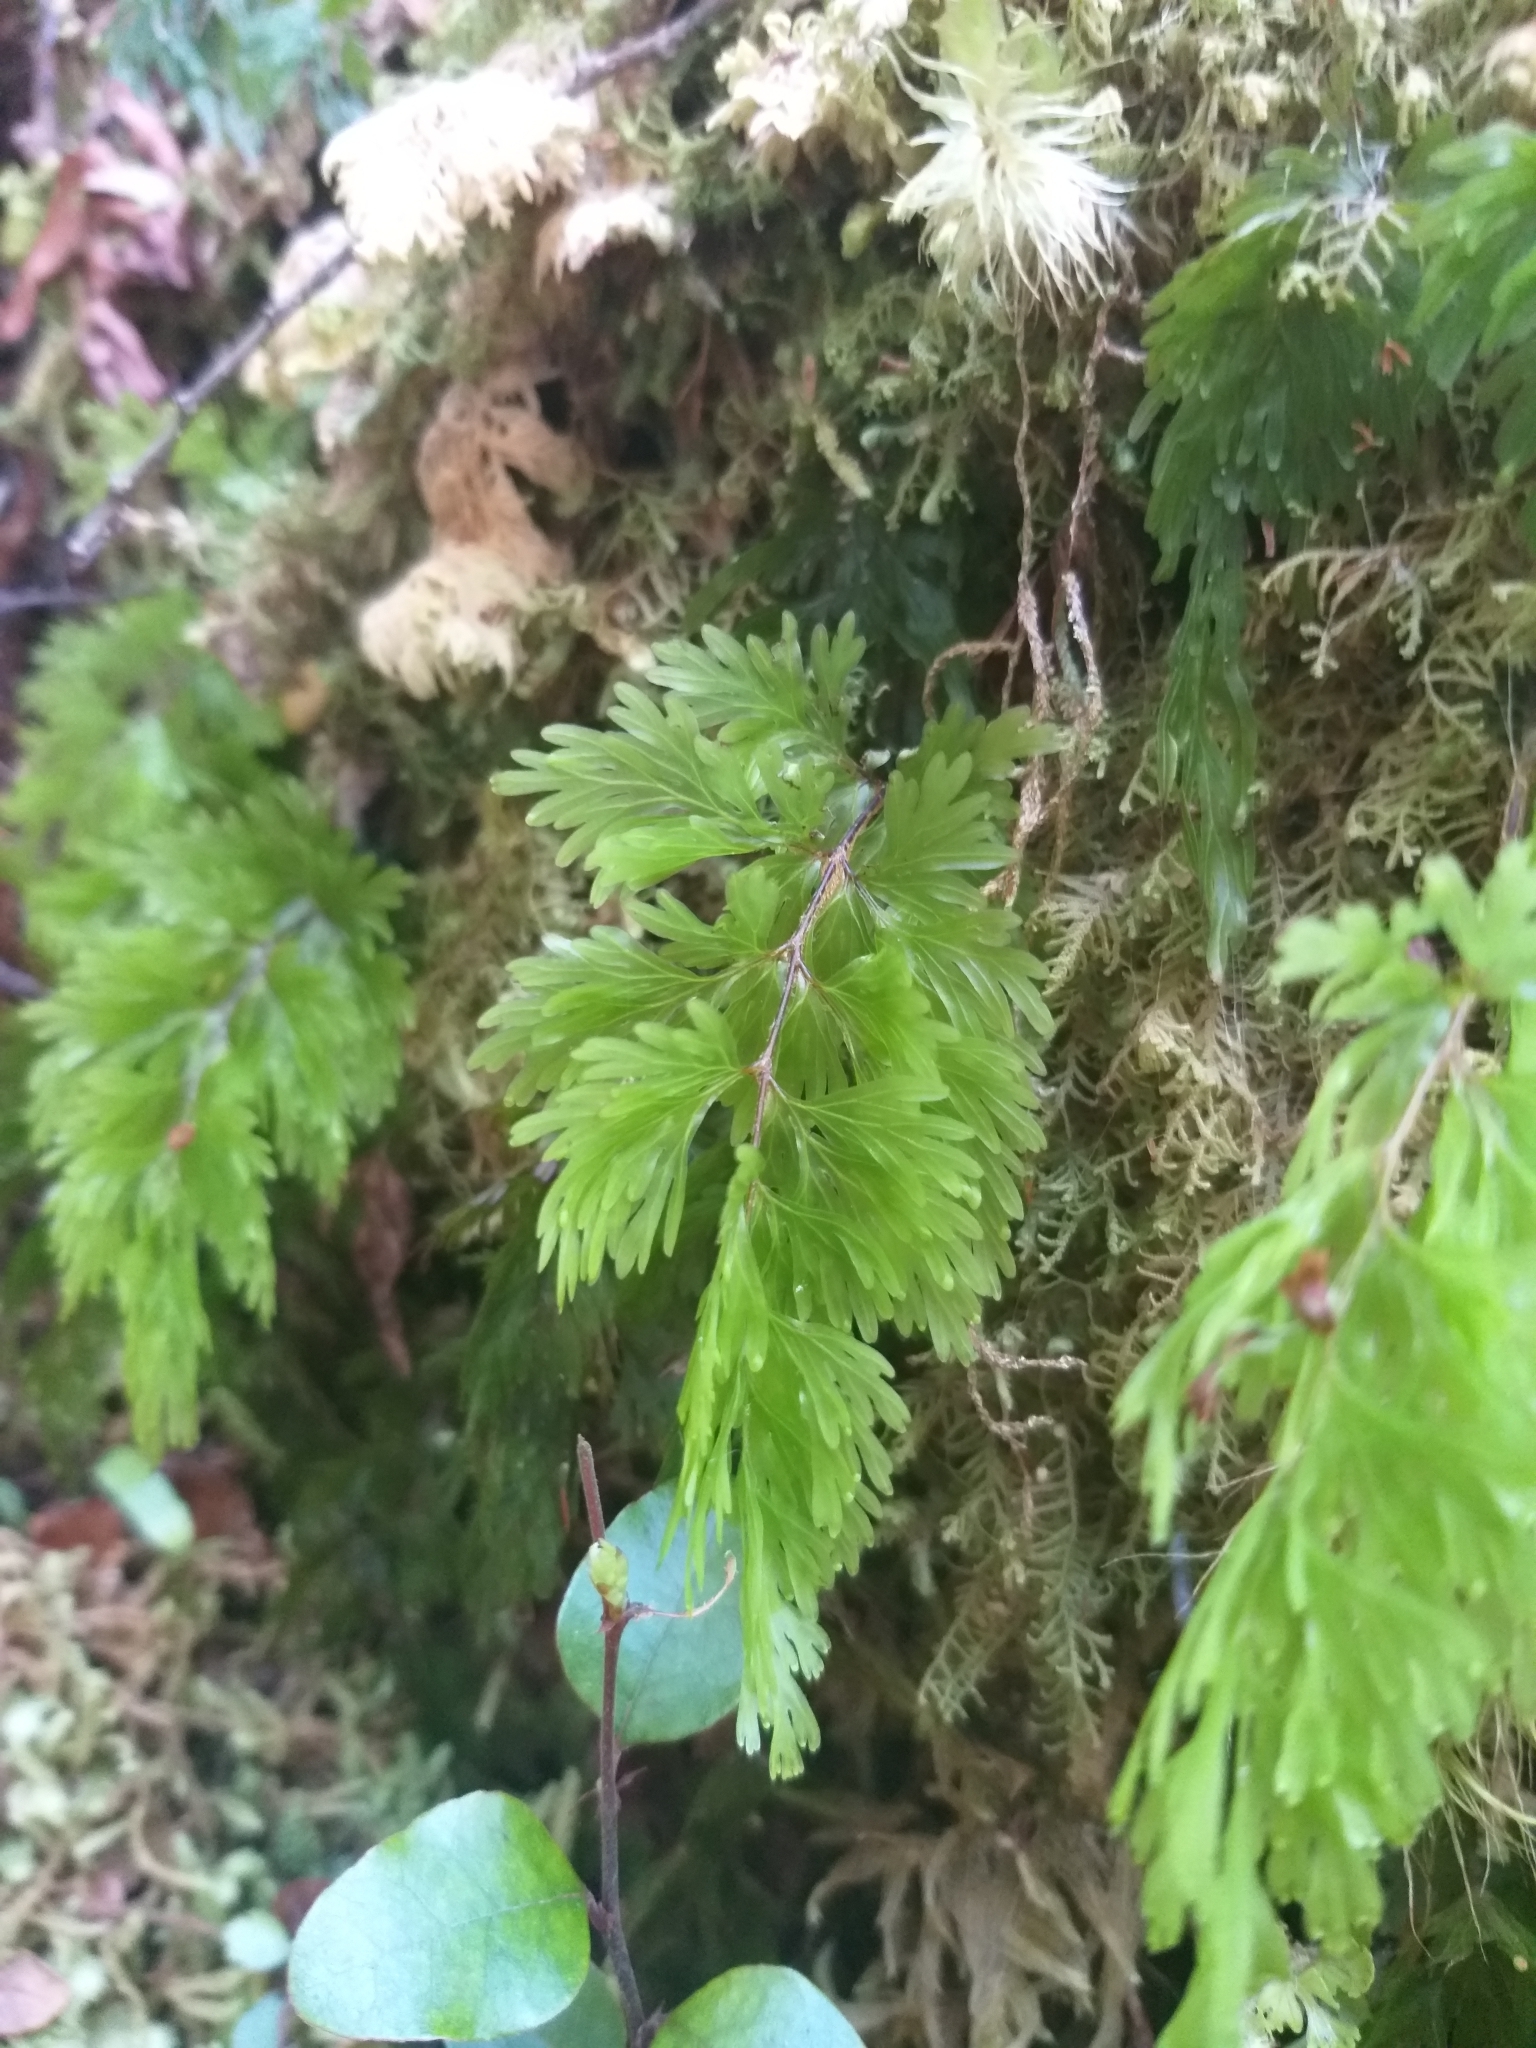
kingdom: Plantae
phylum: Tracheophyta
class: Polypodiopsida
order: Hymenophyllales
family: Hymenophyllaceae
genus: Hymenophyllum
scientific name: Hymenophyllum flabellatum
